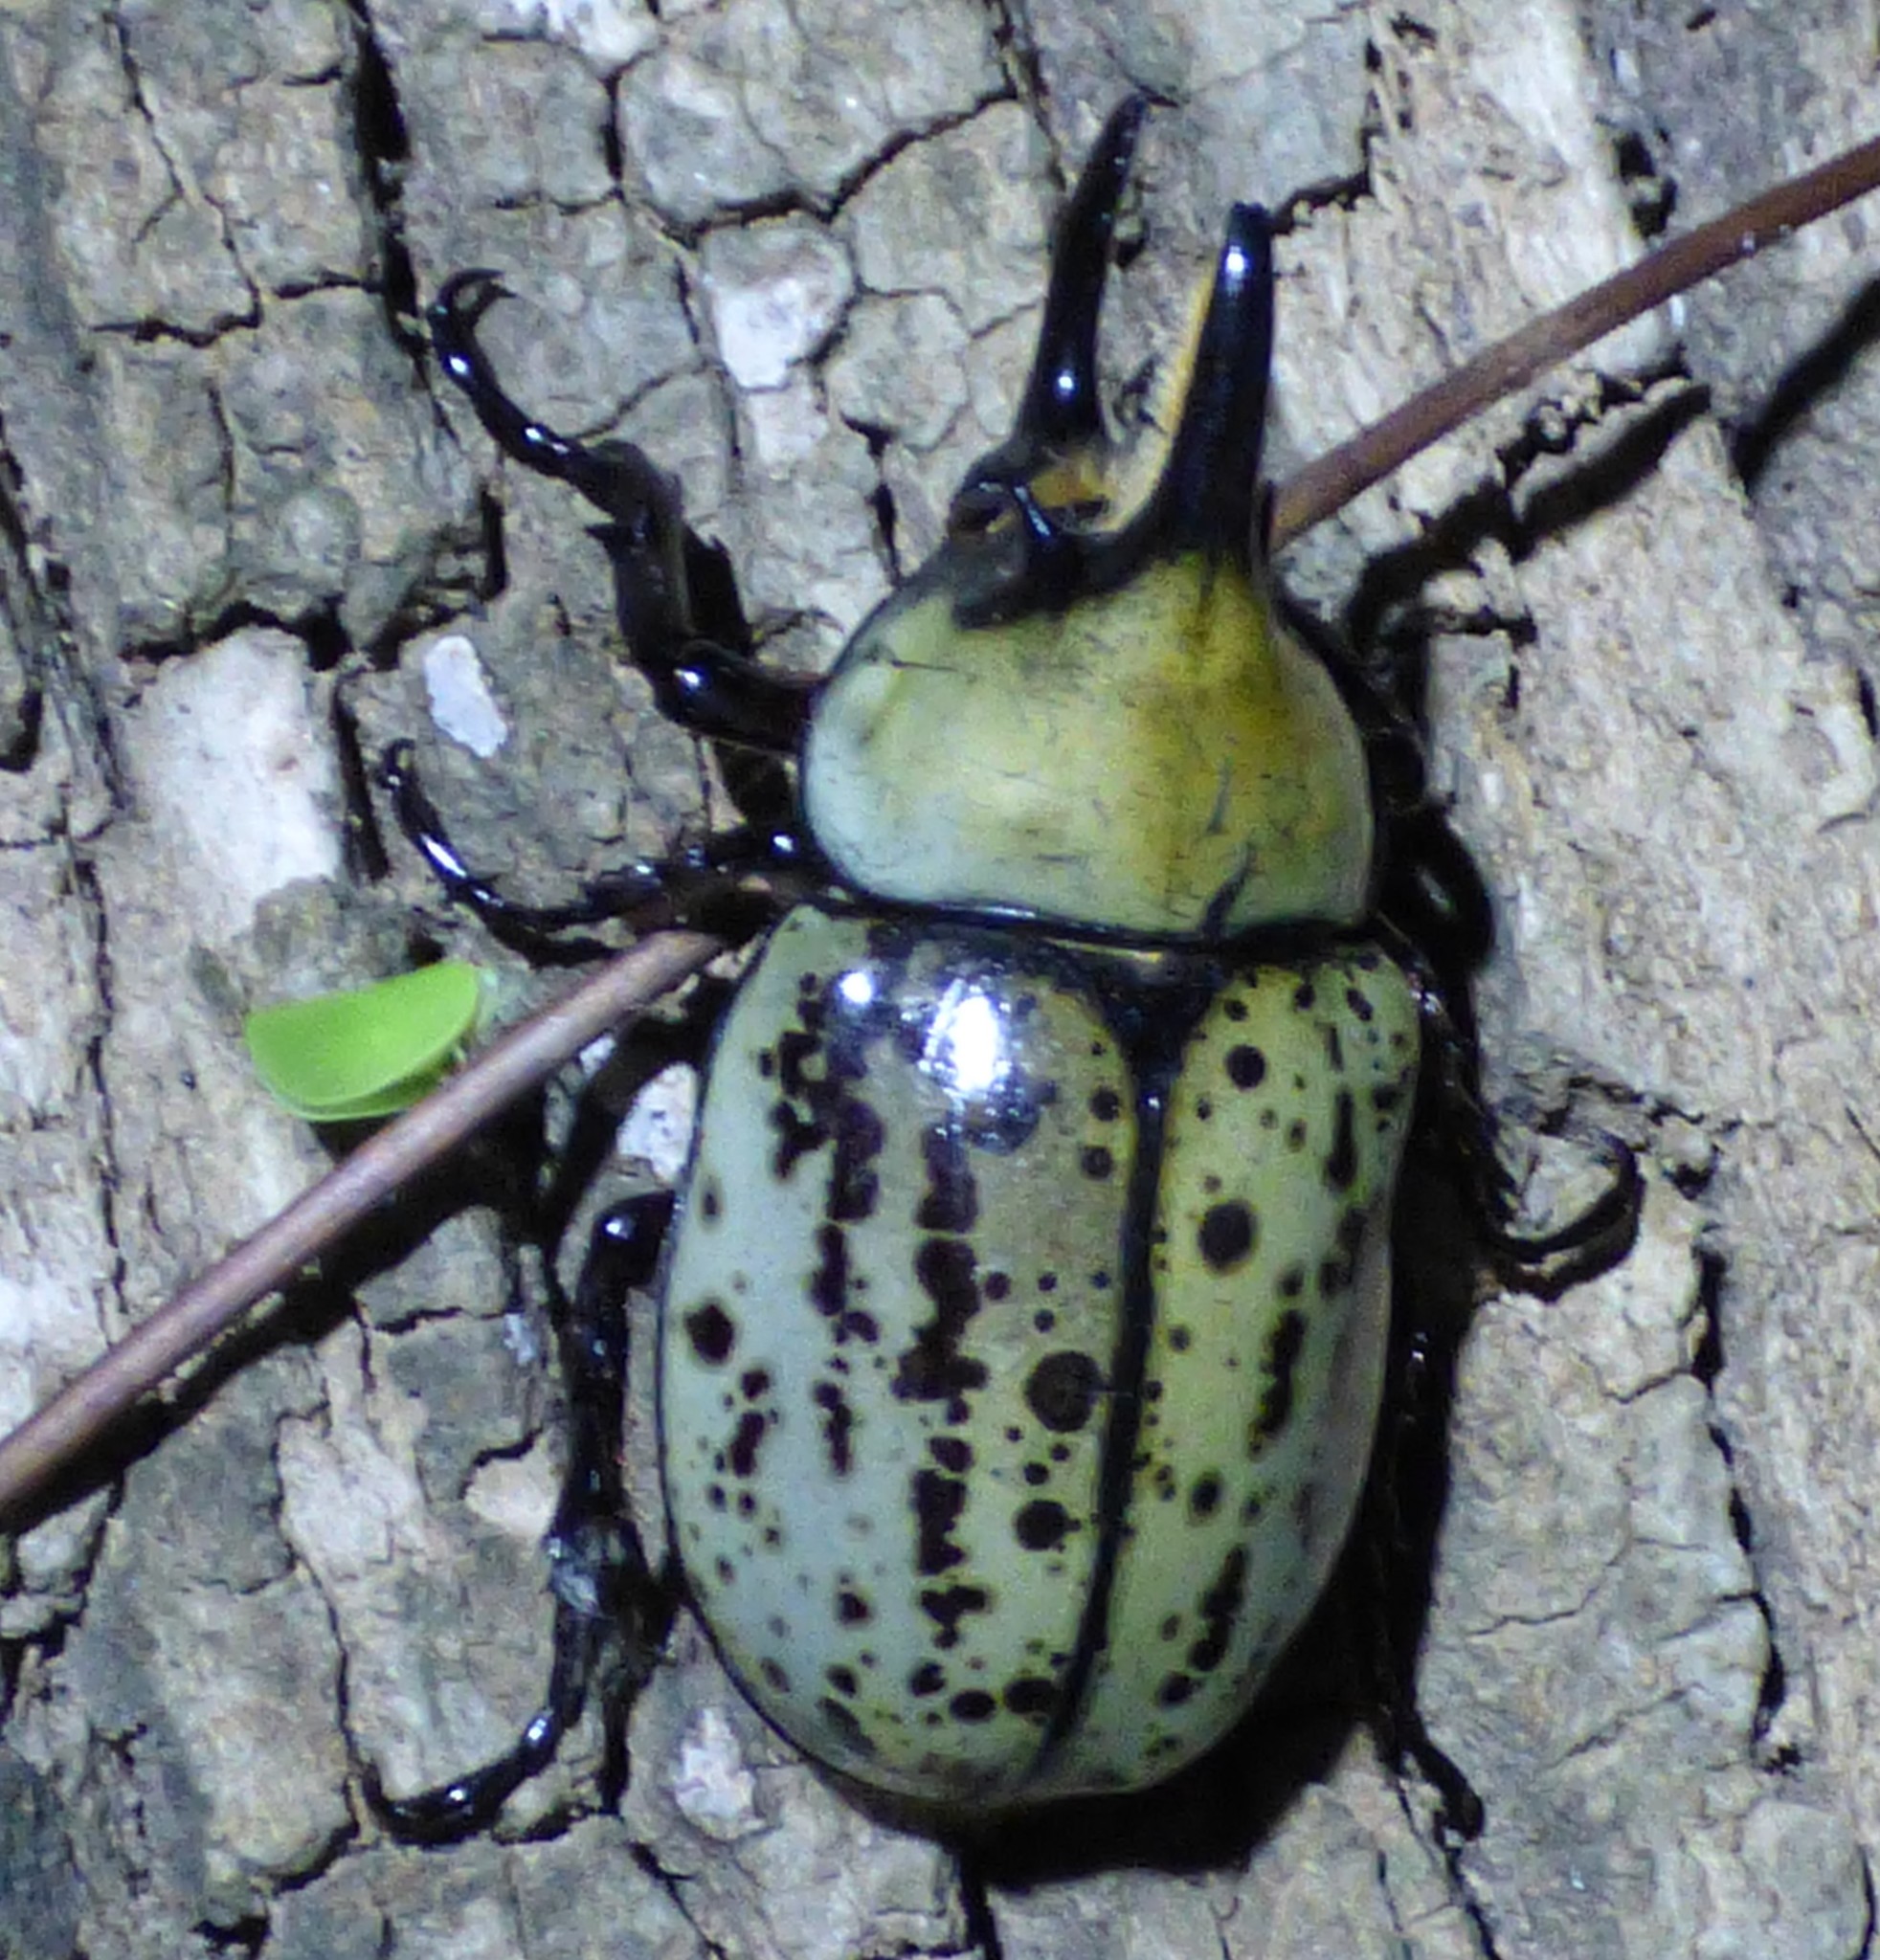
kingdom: Animalia
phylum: Arthropoda
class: Insecta
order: Coleoptera
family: Scarabaeidae
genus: Dynastes
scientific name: Dynastes tityus
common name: Eastern hercules beetle
